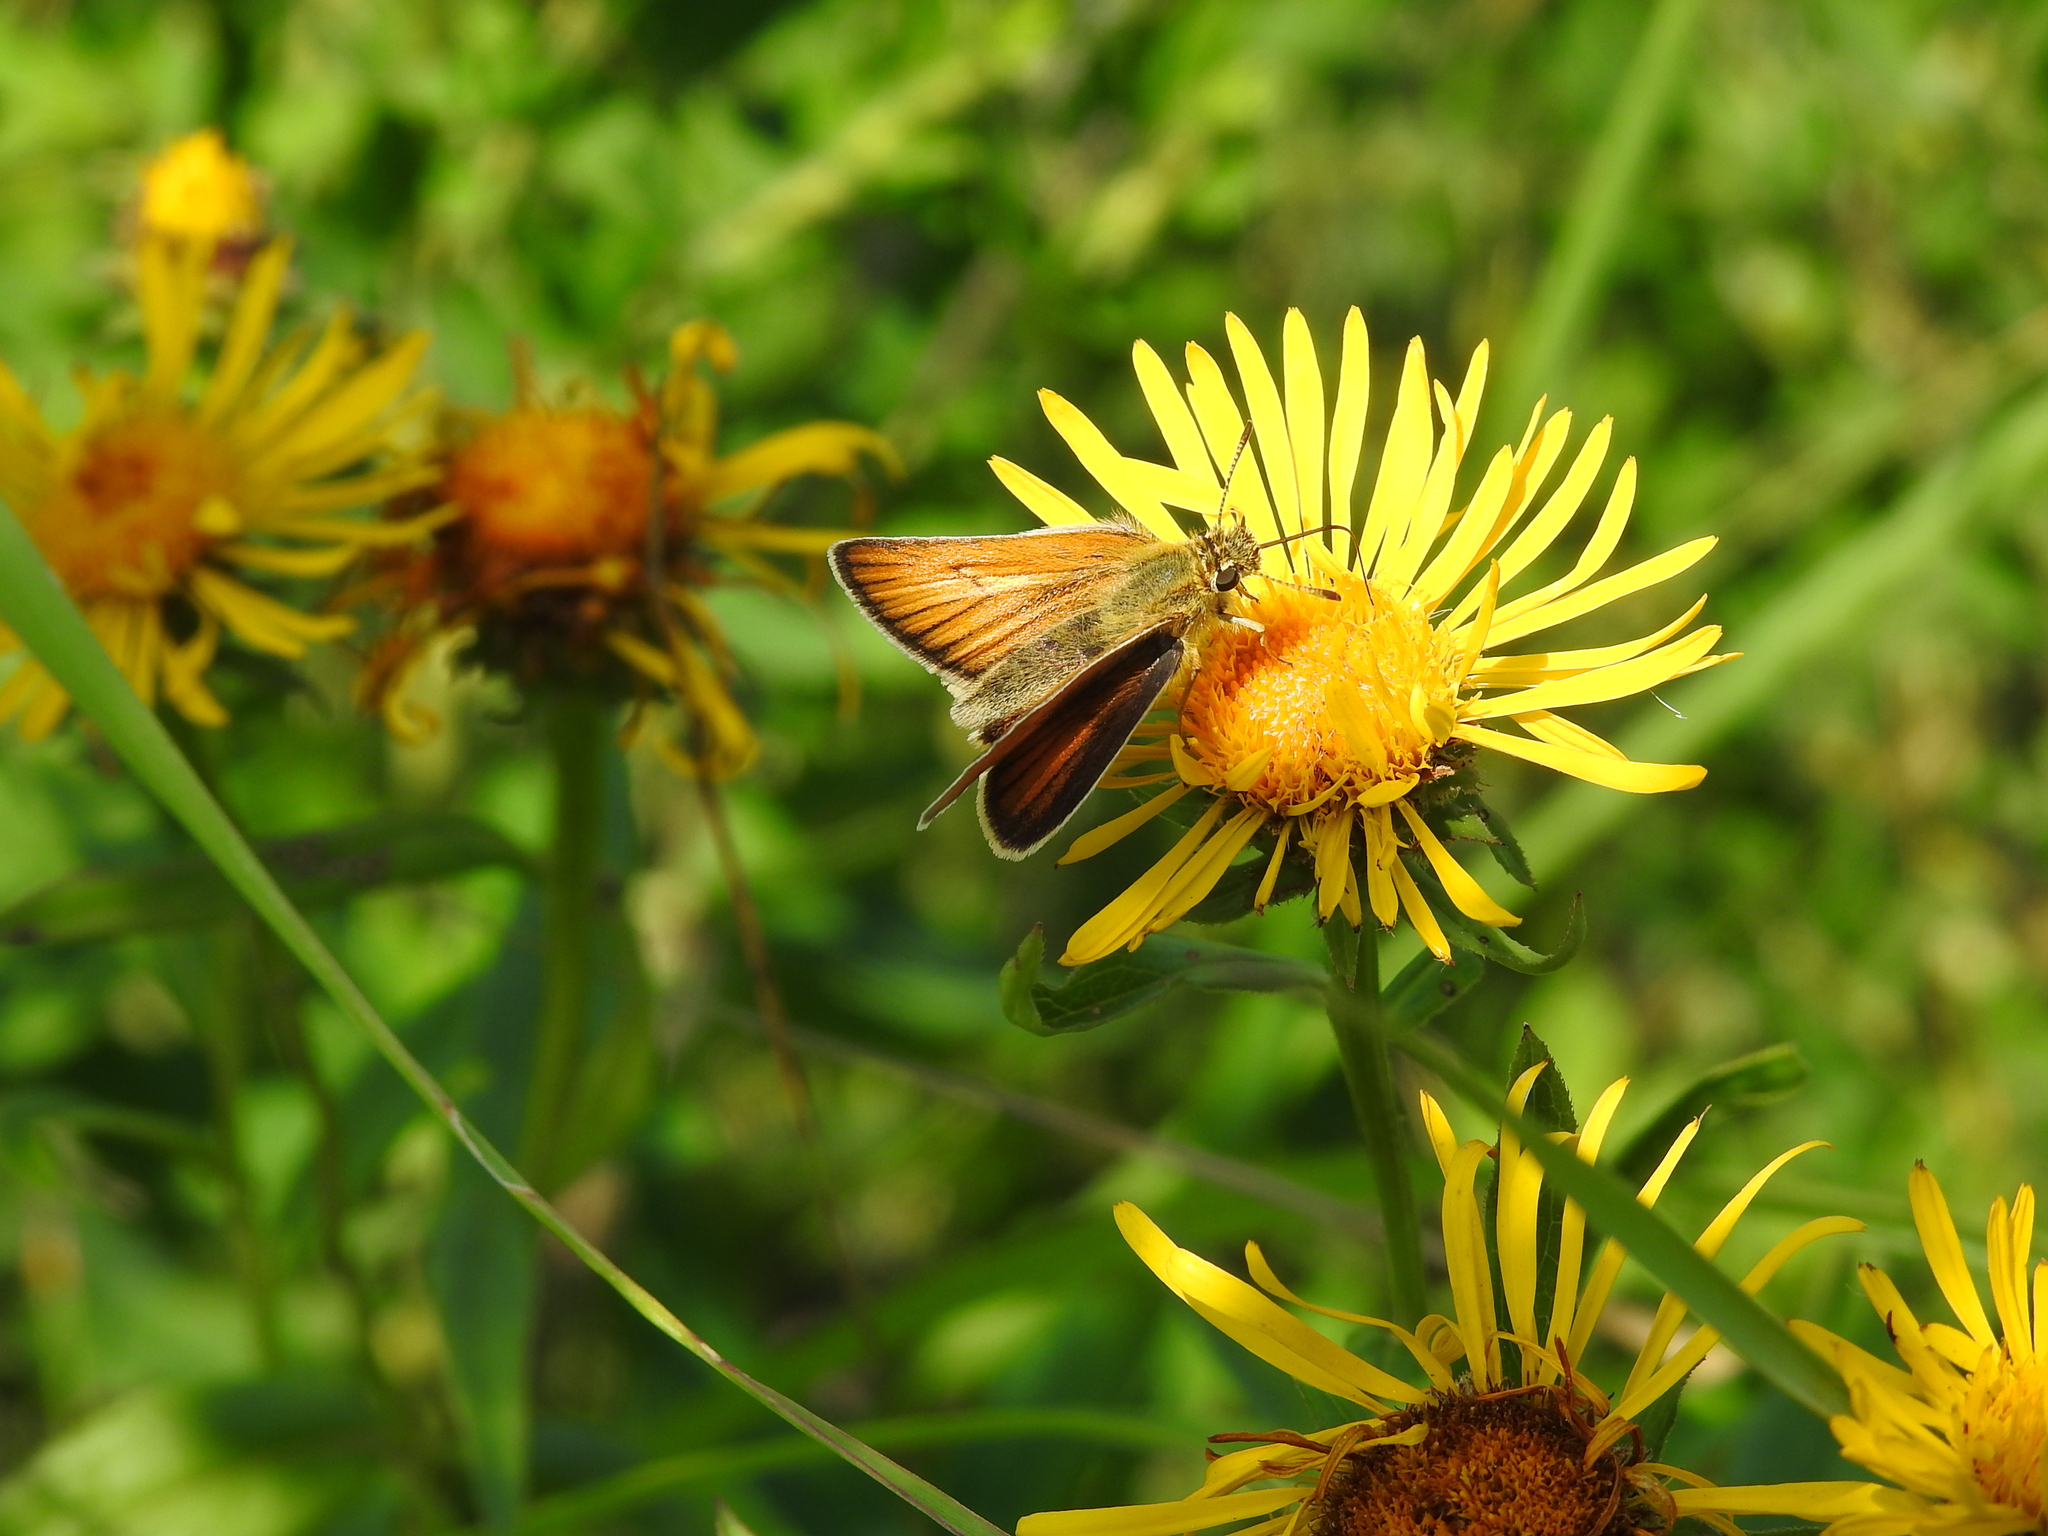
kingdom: Animalia
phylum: Arthropoda
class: Insecta
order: Lepidoptera
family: Hesperiidae
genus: Thymelicus
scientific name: Thymelicus lineola
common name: Essex skipper
